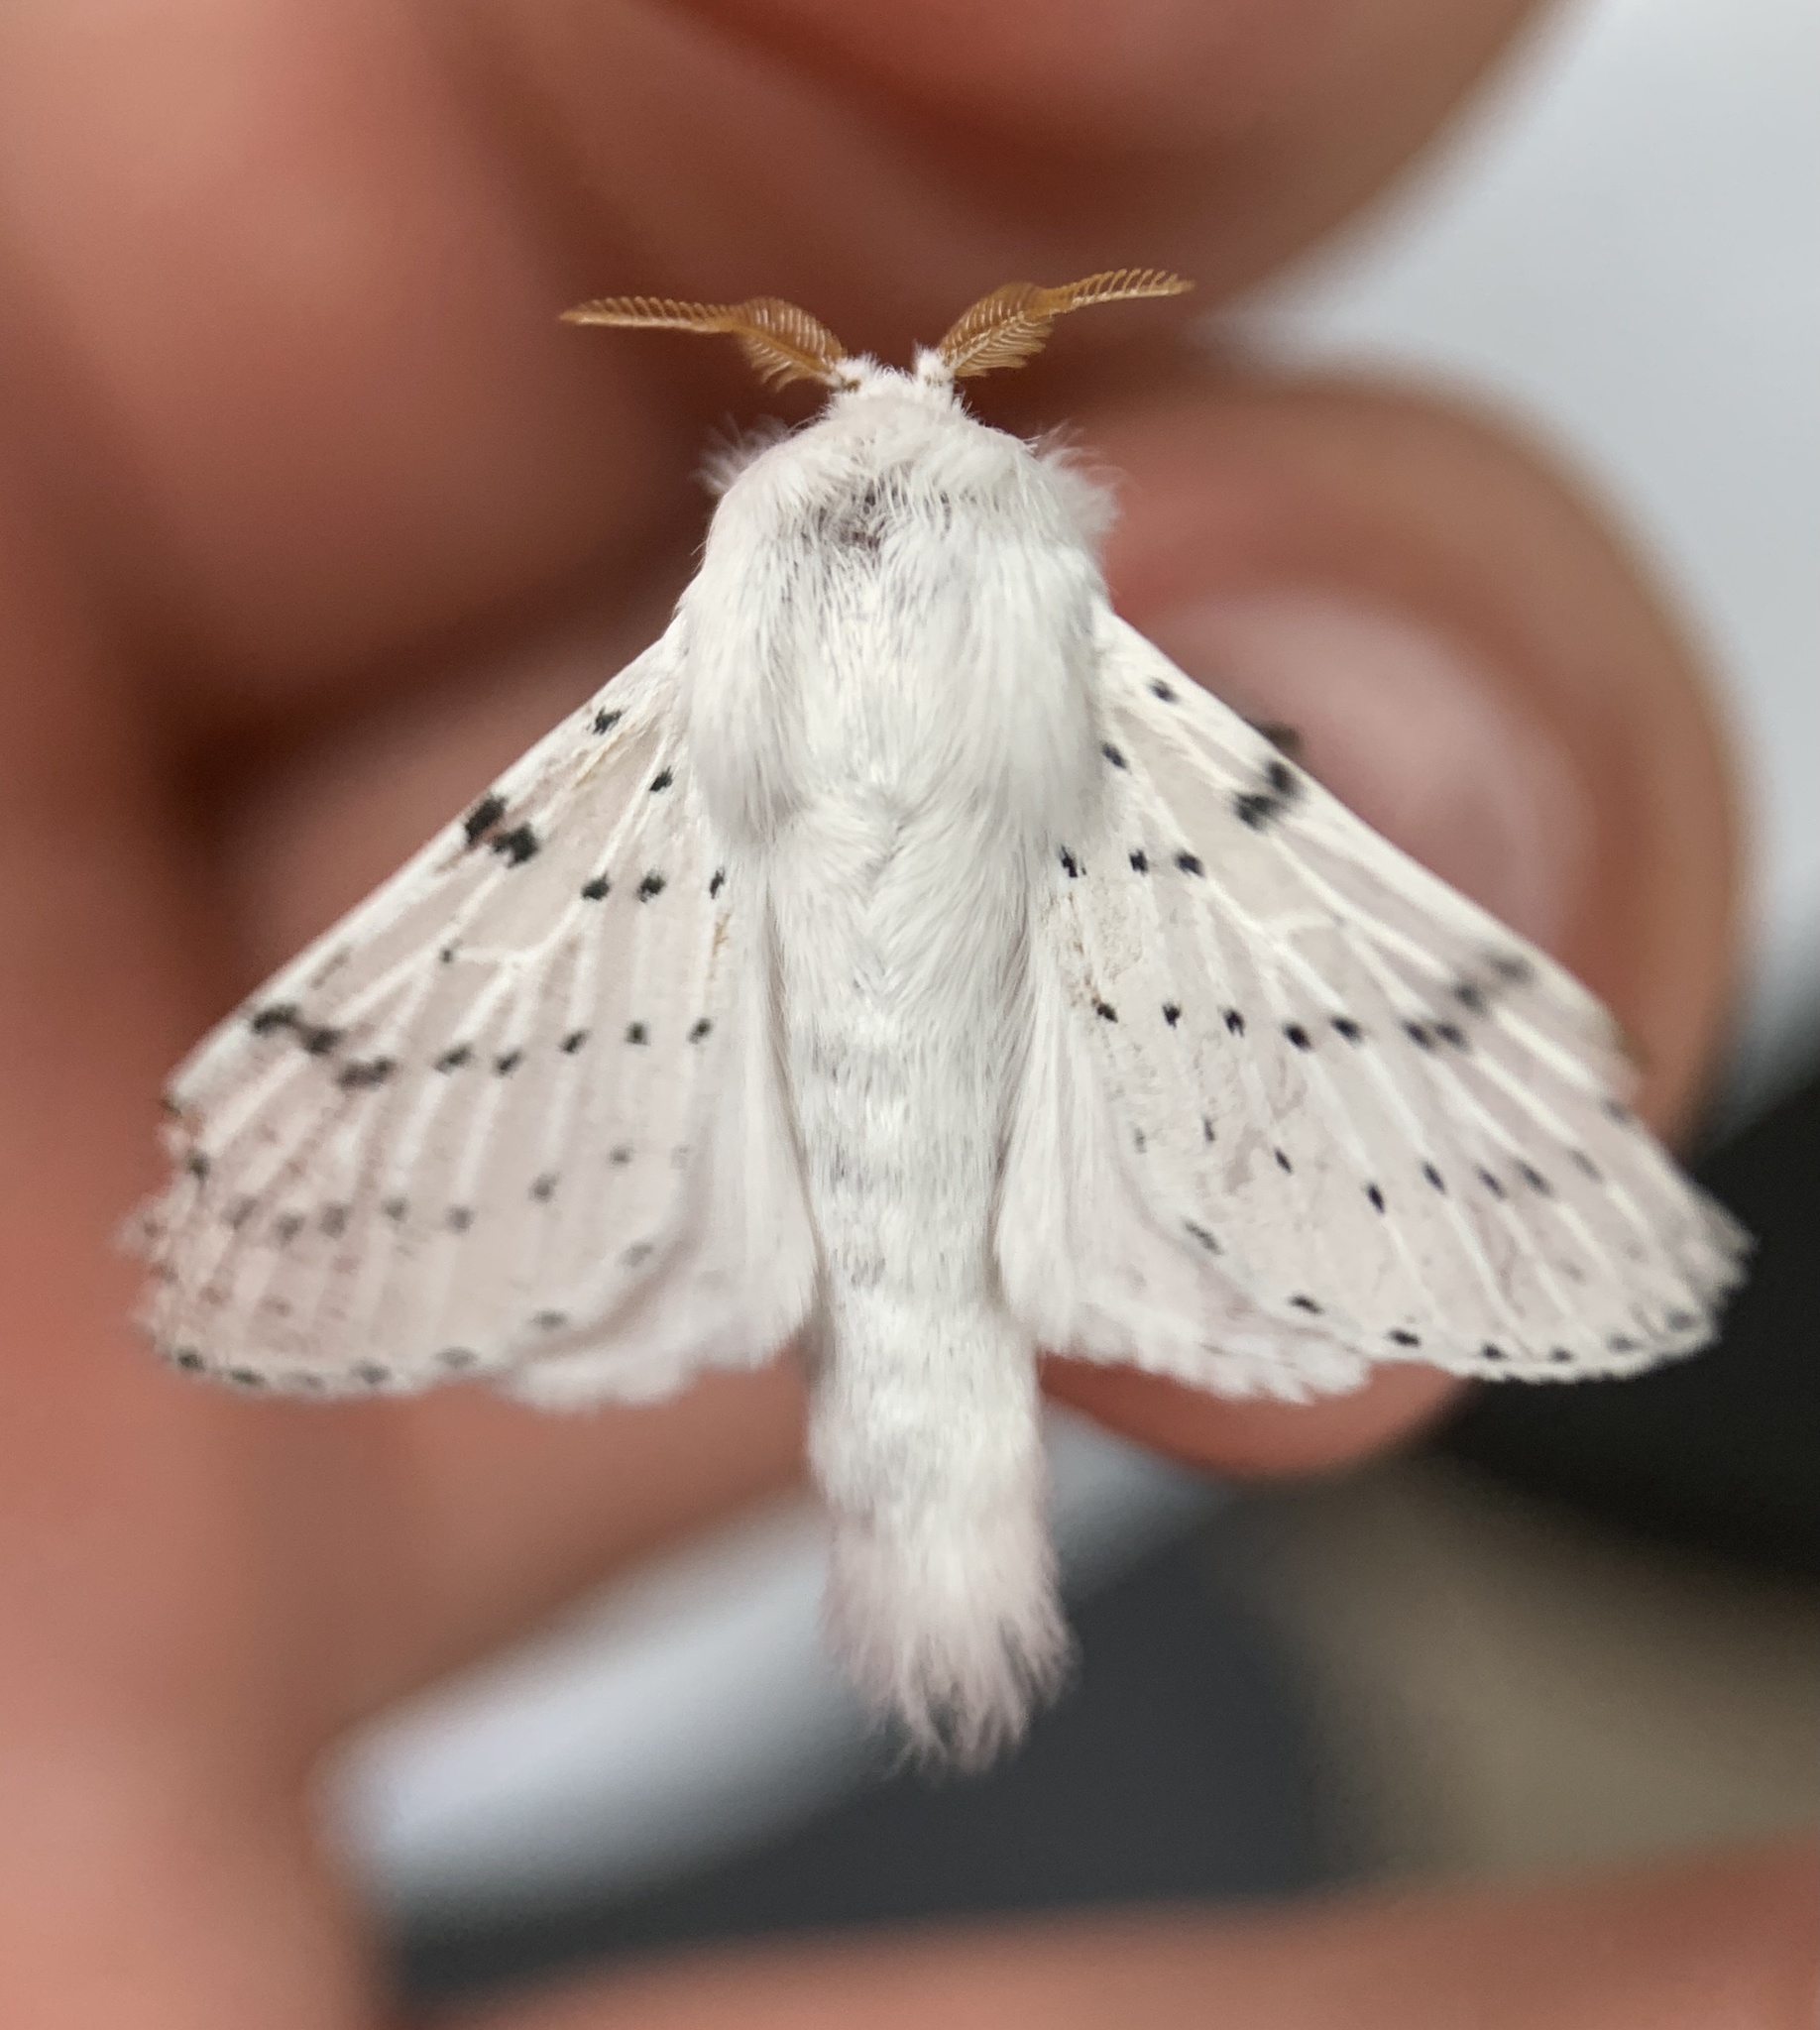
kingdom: Animalia
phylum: Arthropoda
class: Insecta
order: Lepidoptera
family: Lasiocampidae
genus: Artace
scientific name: Artace cribrarius
